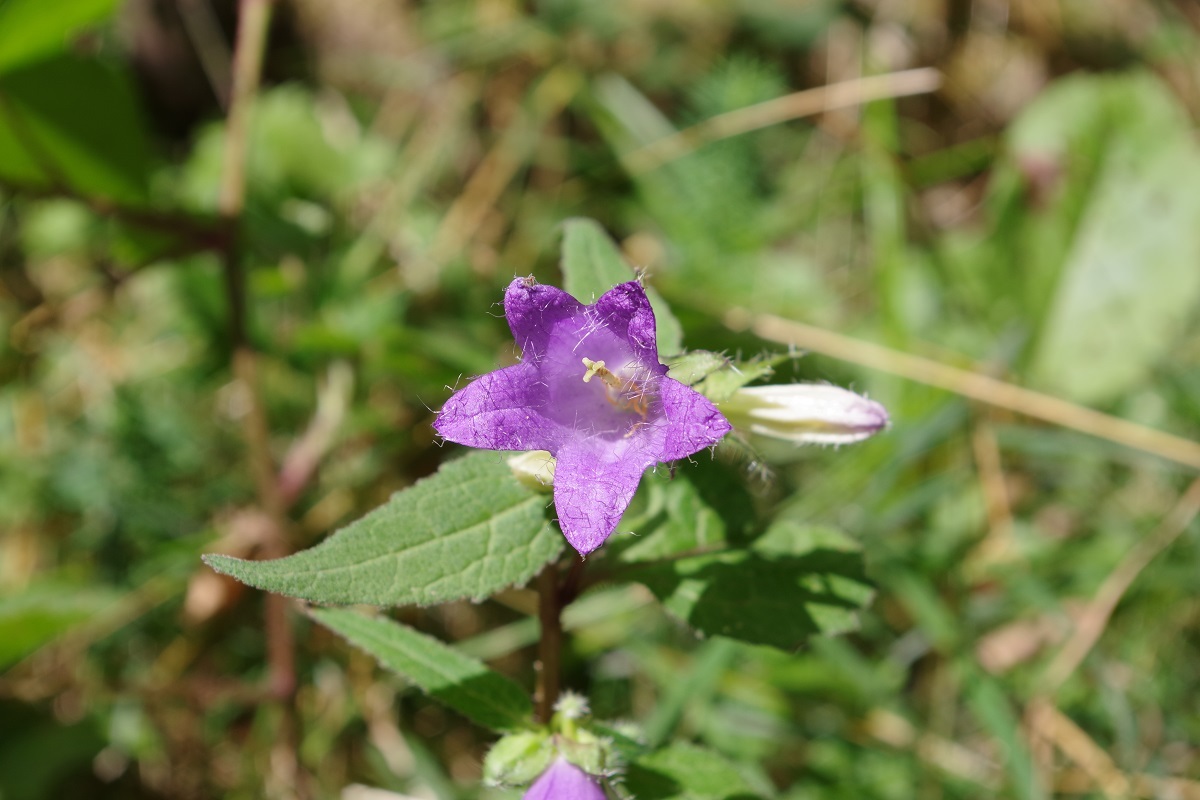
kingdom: Plantae
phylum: Tracheophyta
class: Magnoliopsida
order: Asterales
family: Campanulaceae
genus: Campanula
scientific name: Campanula trachelium
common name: Nettle-leaved bellflower
